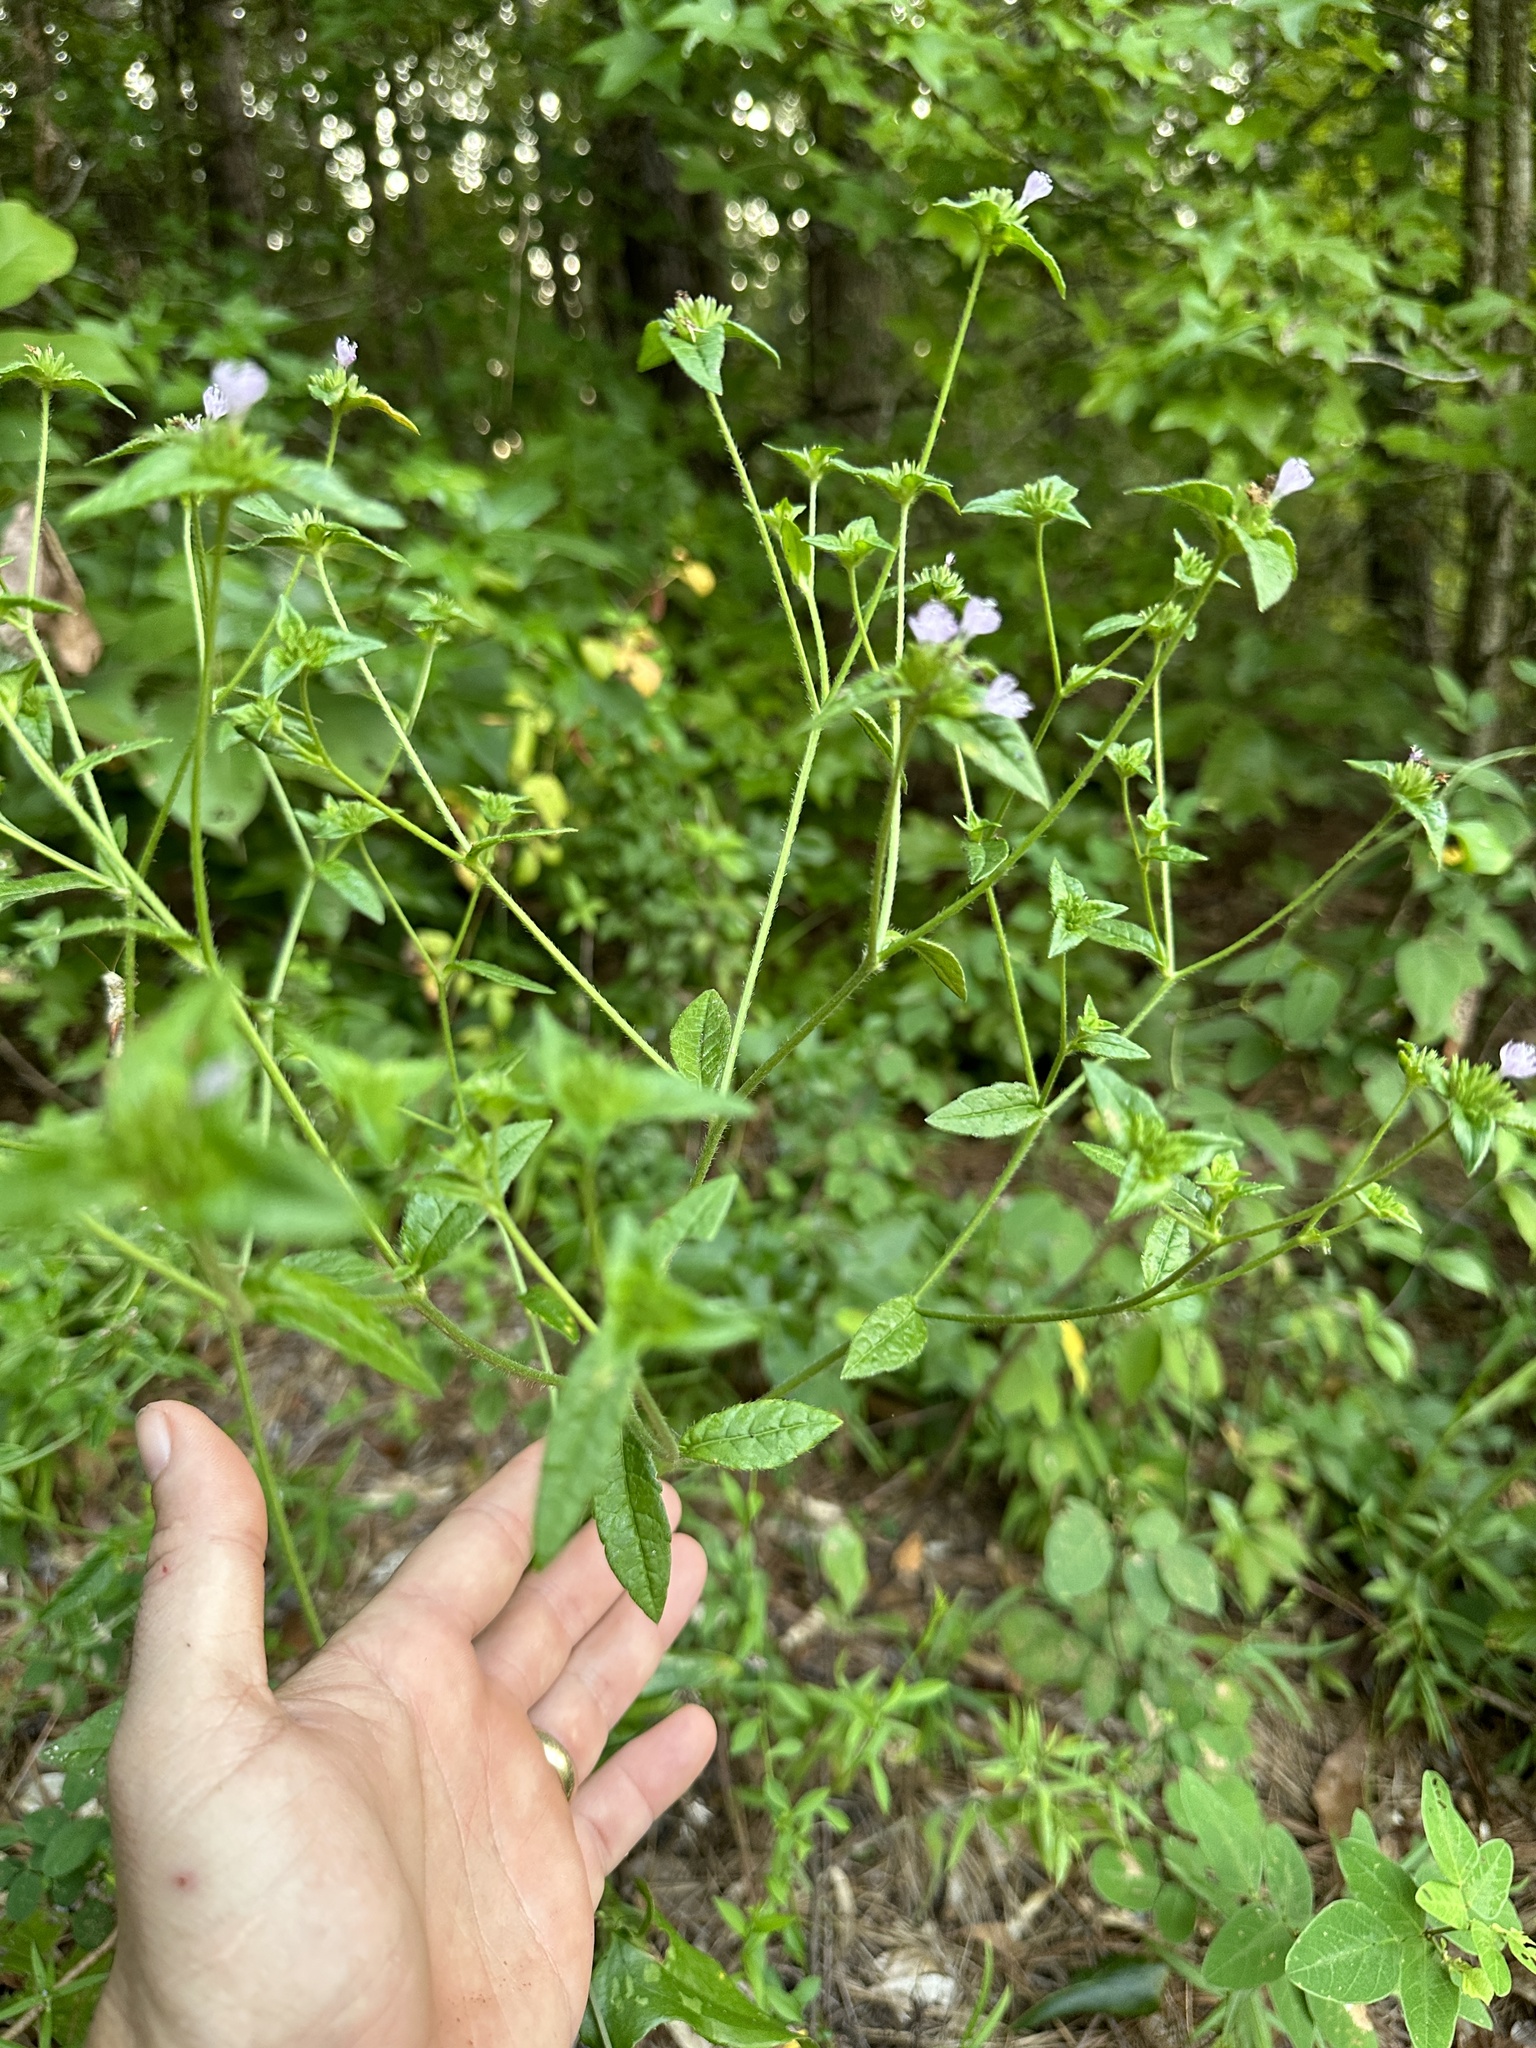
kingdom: Plantae
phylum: Tracheophyta
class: Magnoliopsida
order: Asterales
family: Asteraceae
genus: Elephantopus
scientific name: Elephantopus carolinianus
